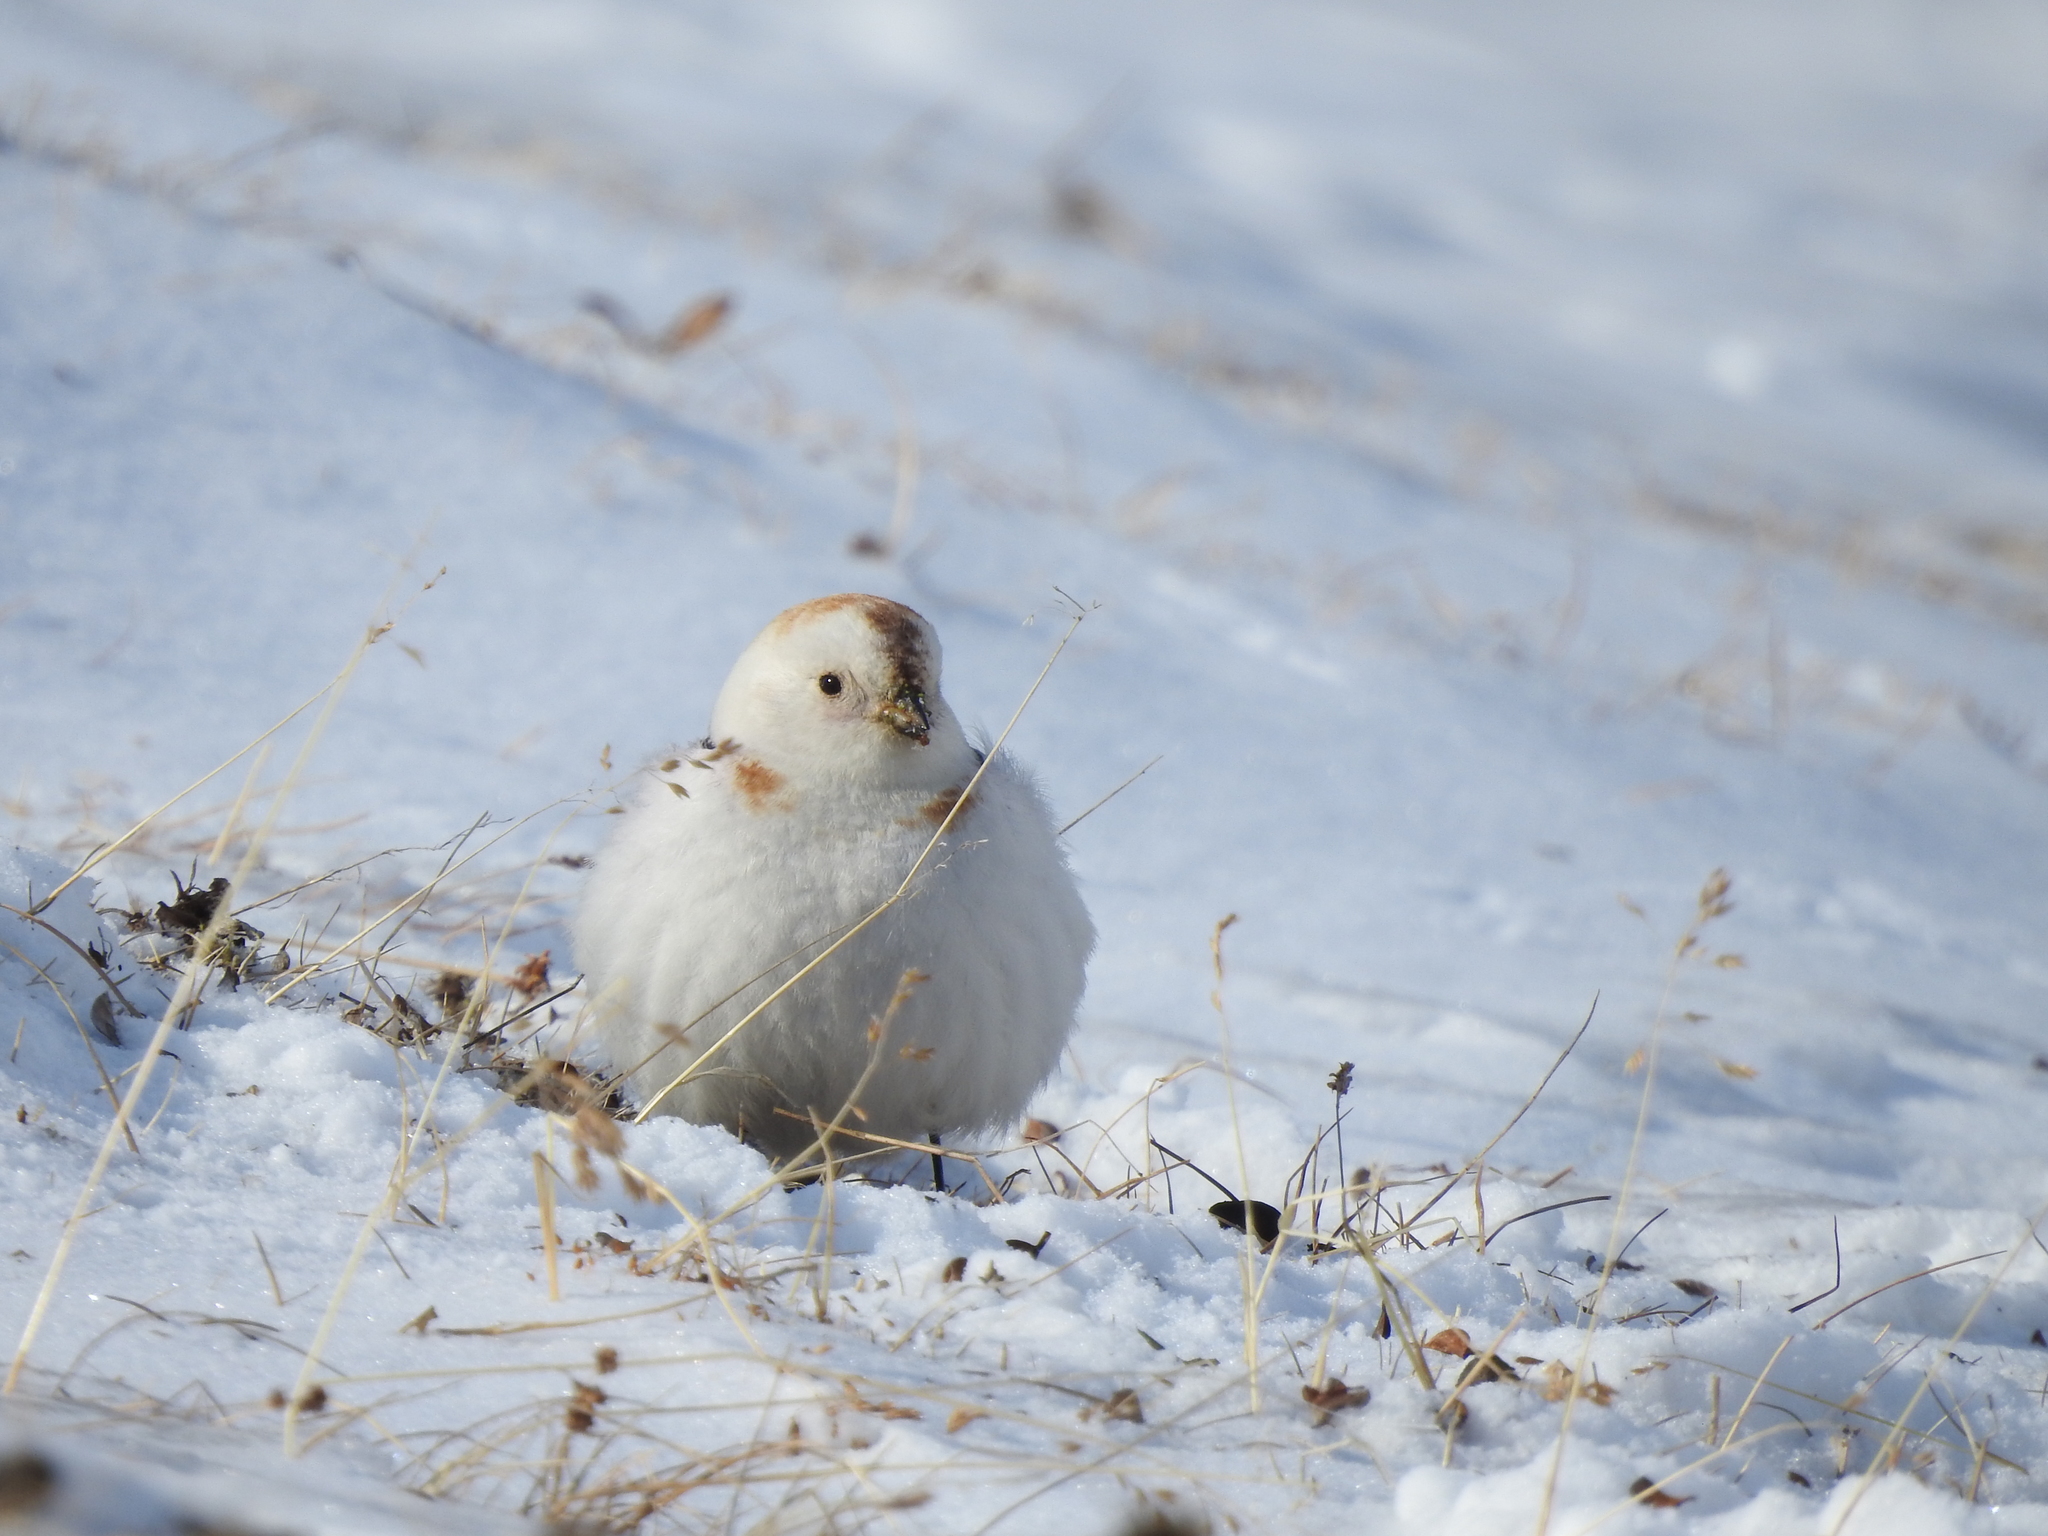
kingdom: Animalia
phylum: Chordata
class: Aves
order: Passeriformes
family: Calcariidae
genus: Plectrophenax
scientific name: Plectrophenax nivalis
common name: Snow bunting
